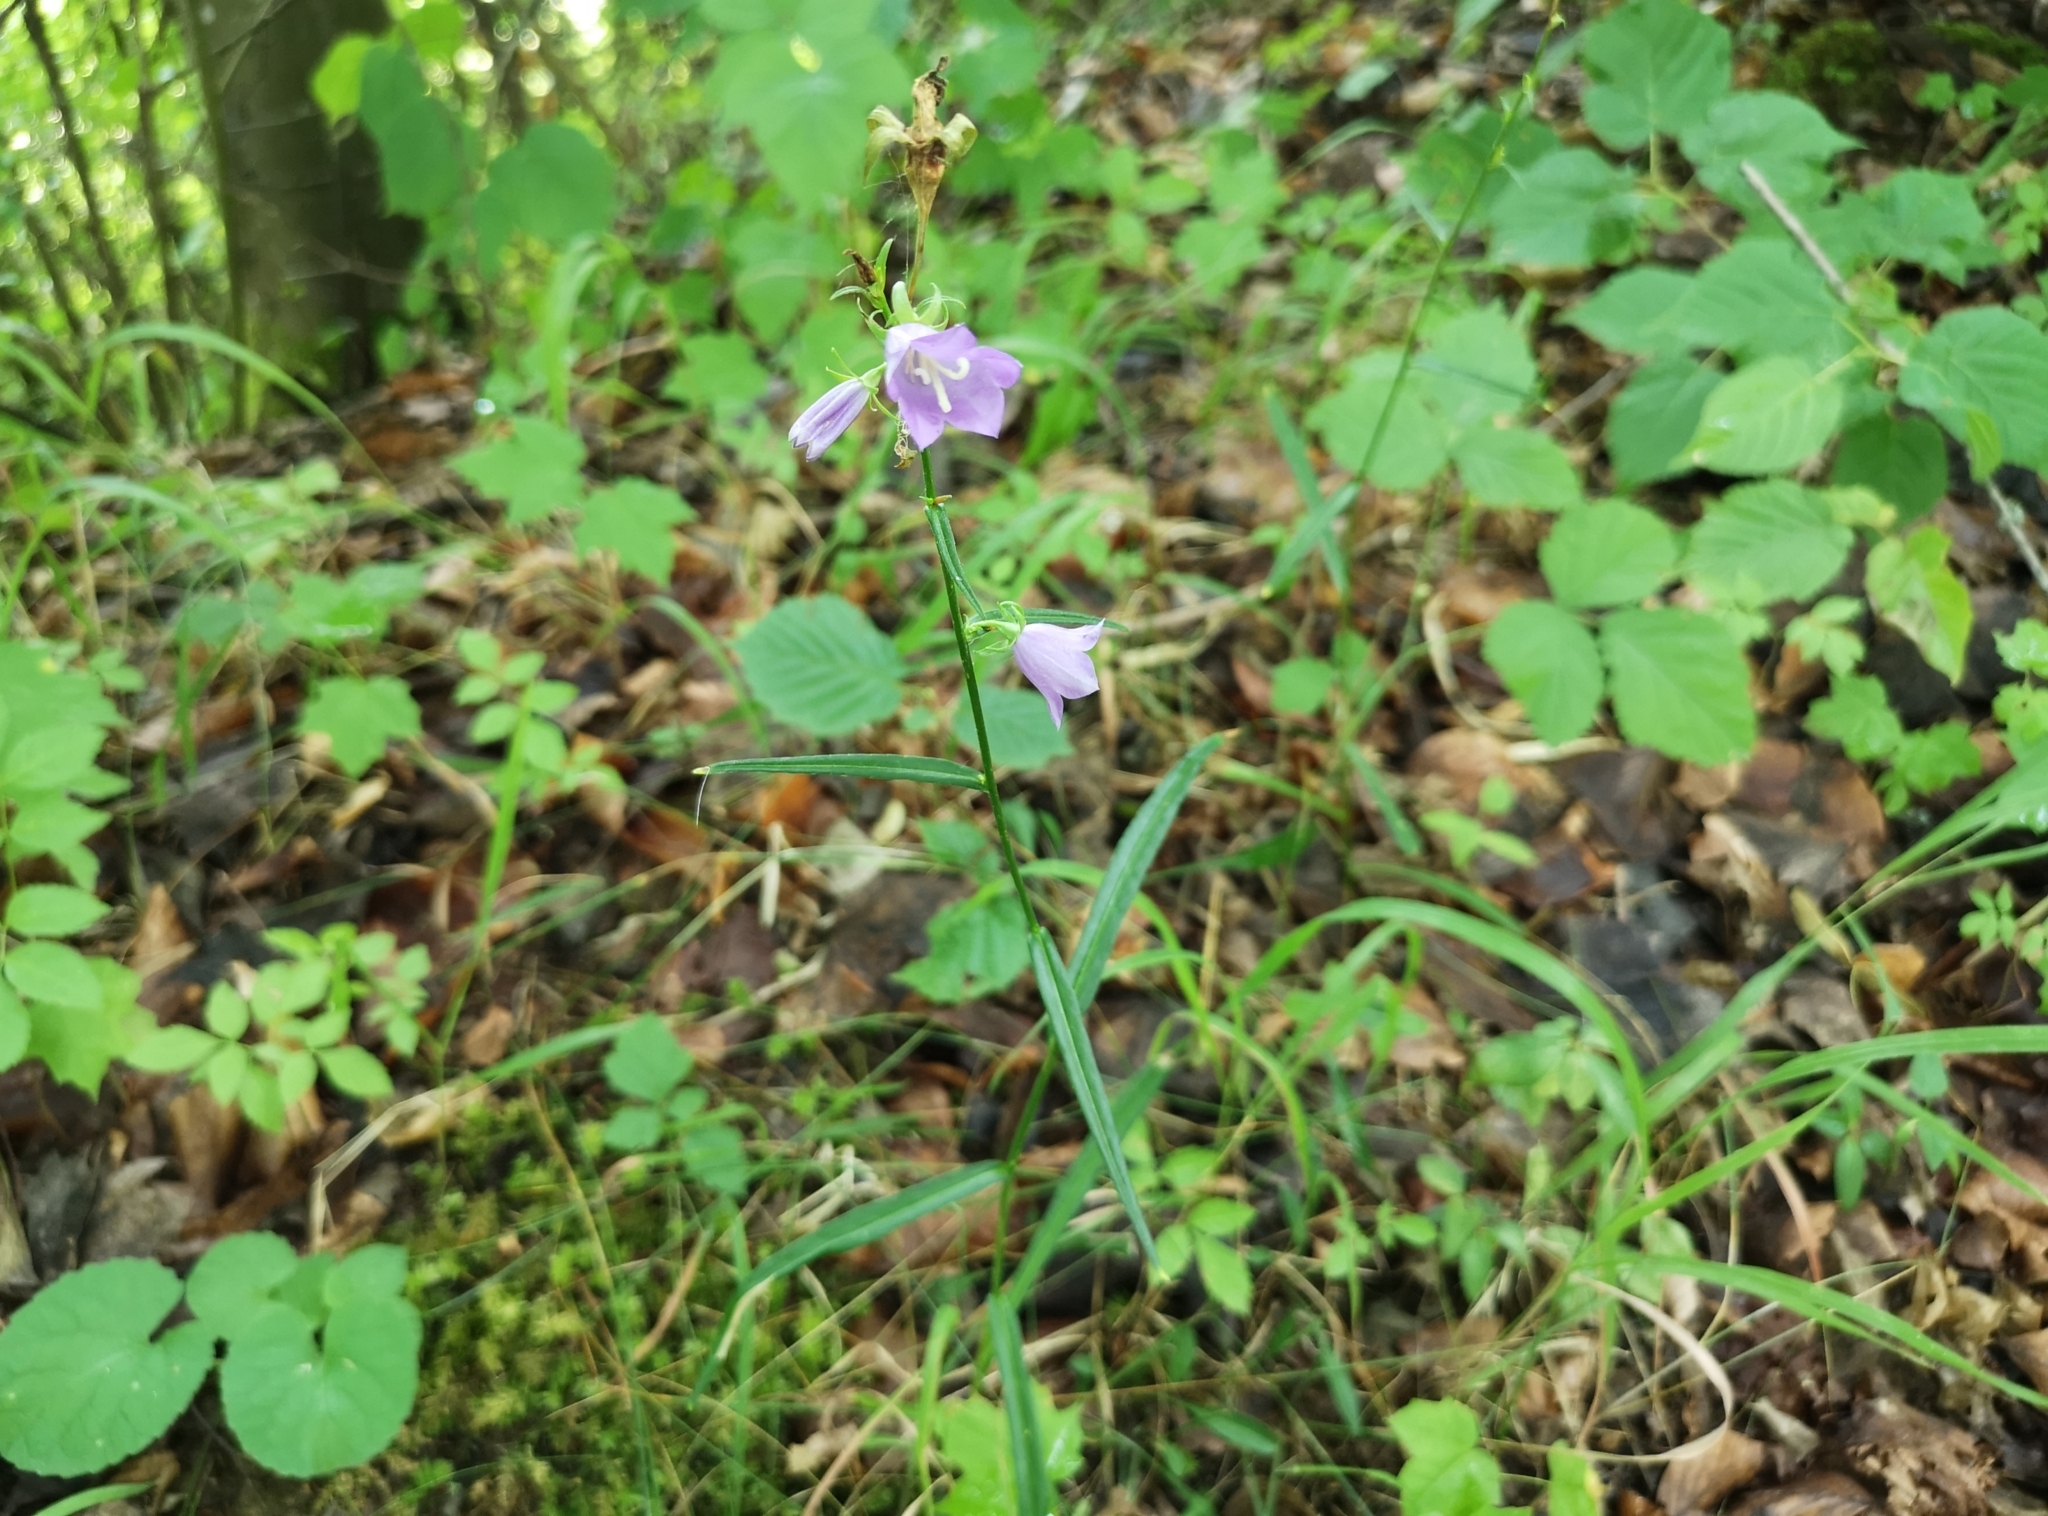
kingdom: Plantae
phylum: Tracheophyta
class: Magnoliopsida
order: Asterales
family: Campanulaceae
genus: Campanula
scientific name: Campanula persicifolia
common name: Peach-leaved bellflower
